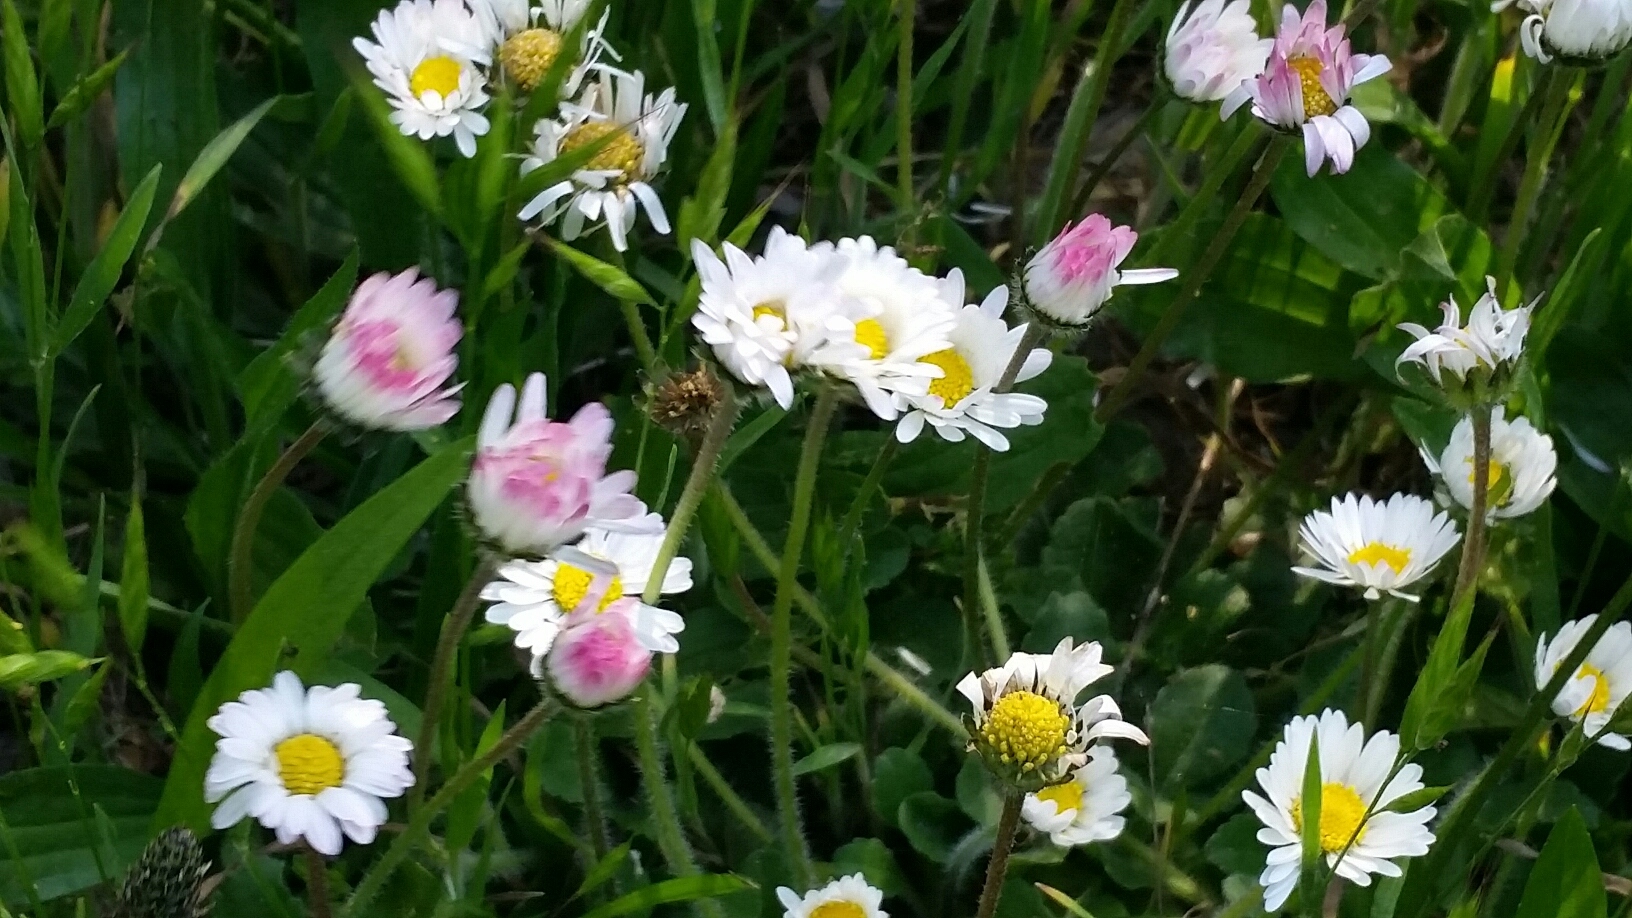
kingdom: Plantae
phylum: Tracheophyta
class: Magnoliopsida
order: Asterales
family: Asteraceae
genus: Bellis
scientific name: Bellis perennis
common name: Lawndaisy
